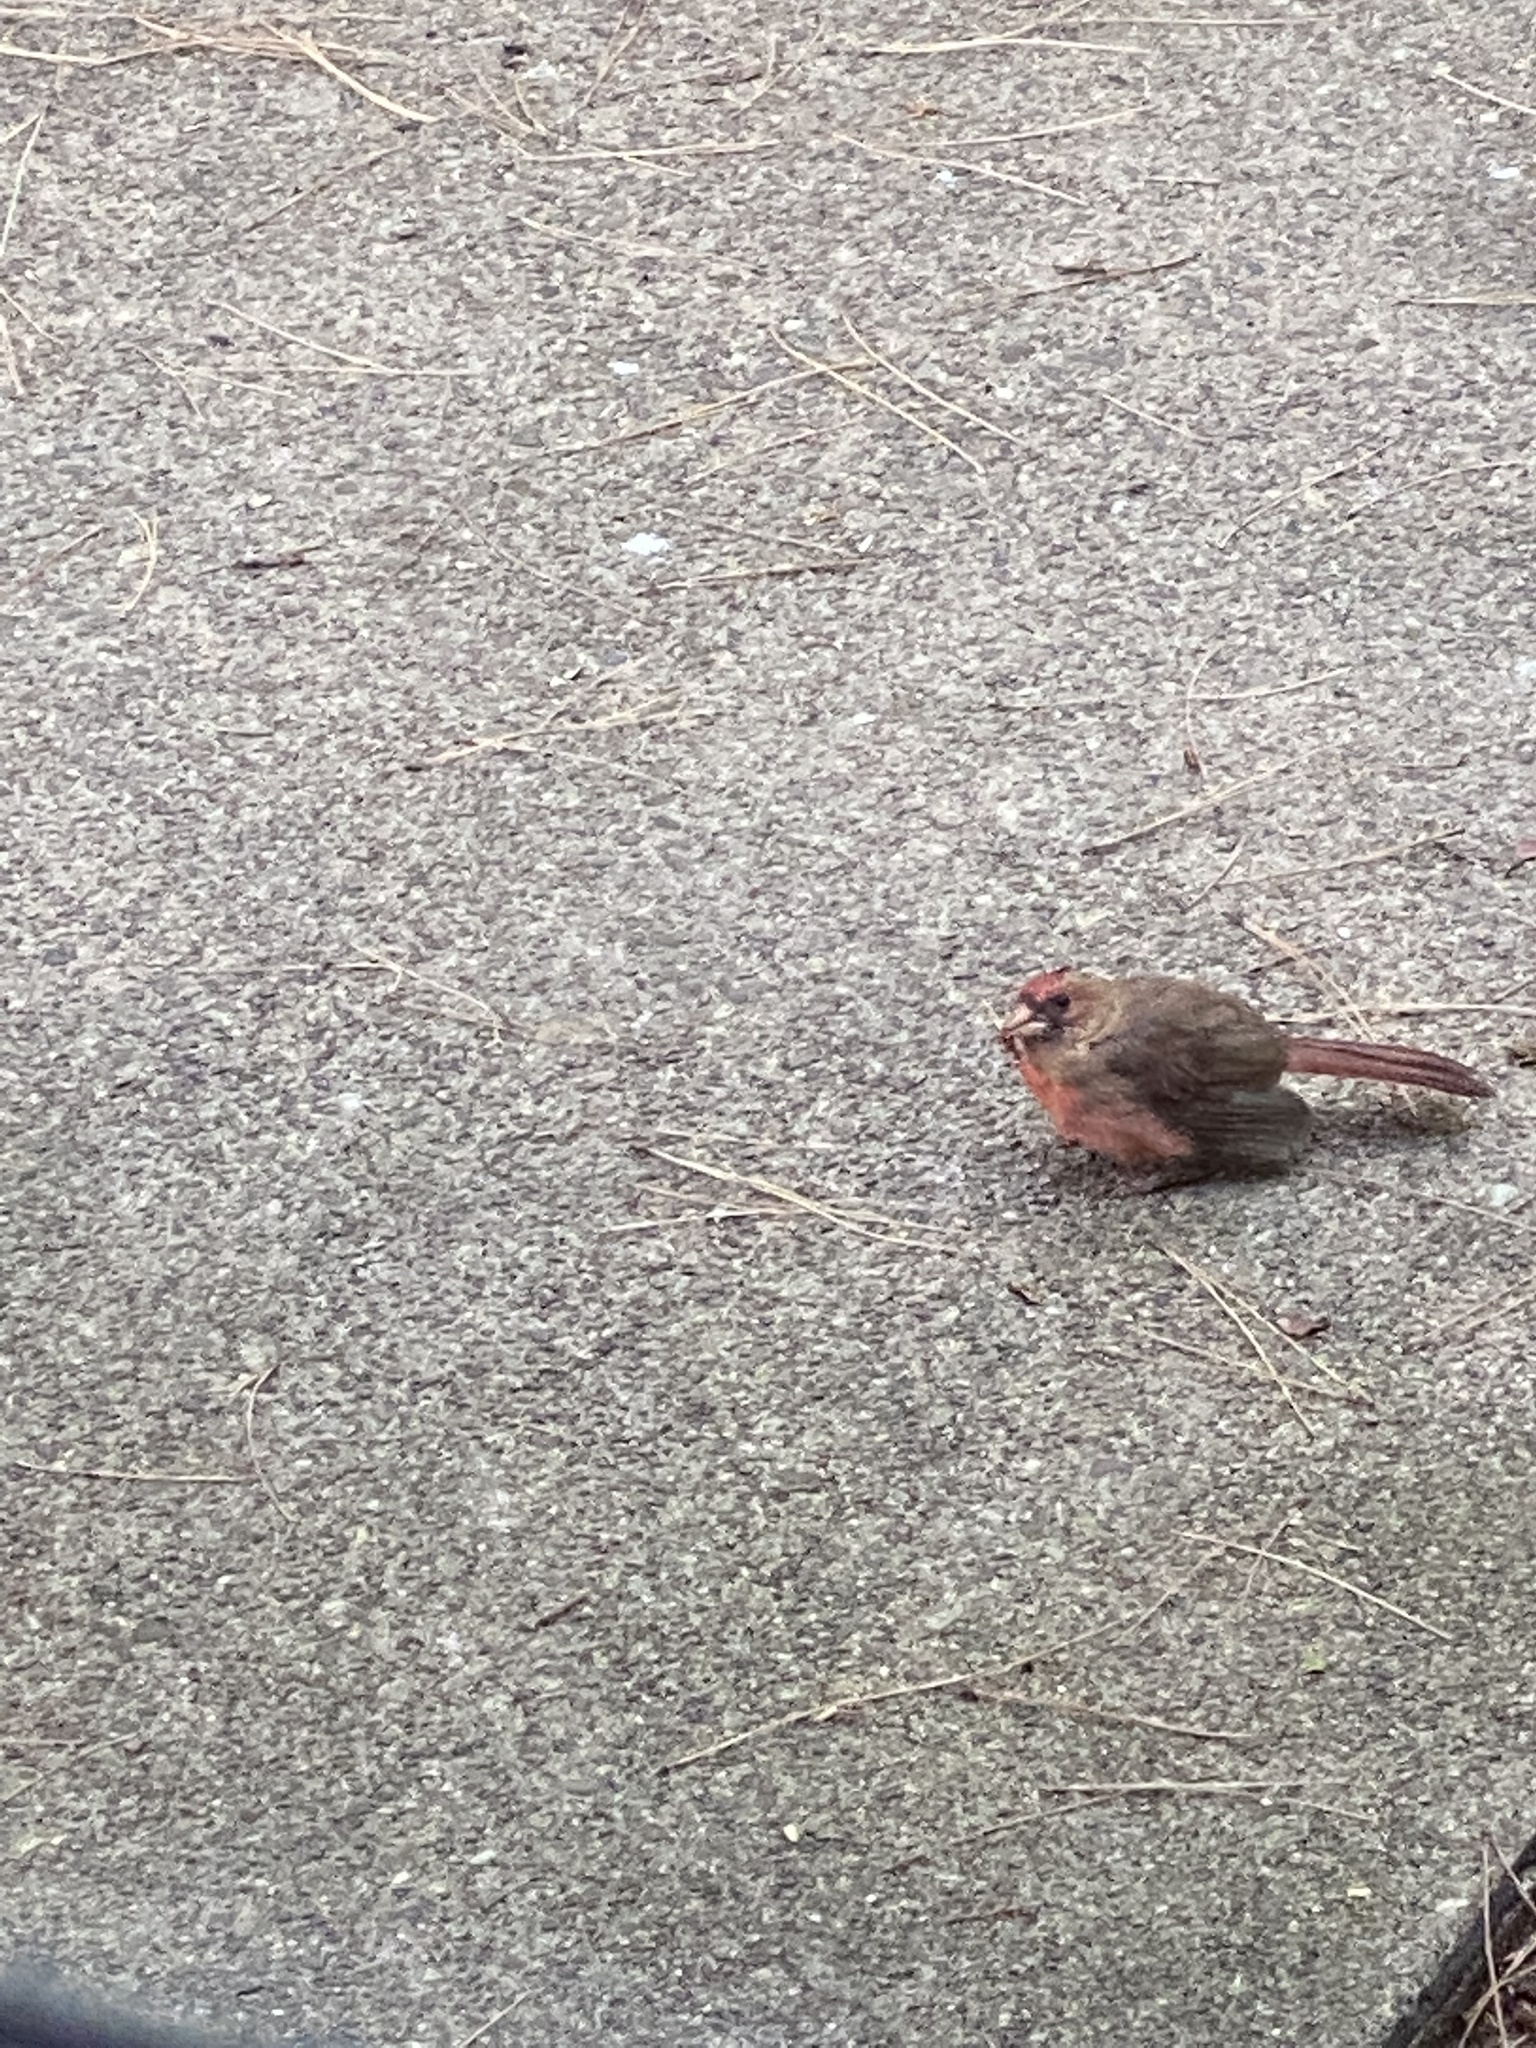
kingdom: Animalia
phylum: Chordata
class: Aves
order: Passeriformes
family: Cardinalidae
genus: Cardinalis
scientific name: Cardinalis cardinalis
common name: Northern cardinal
